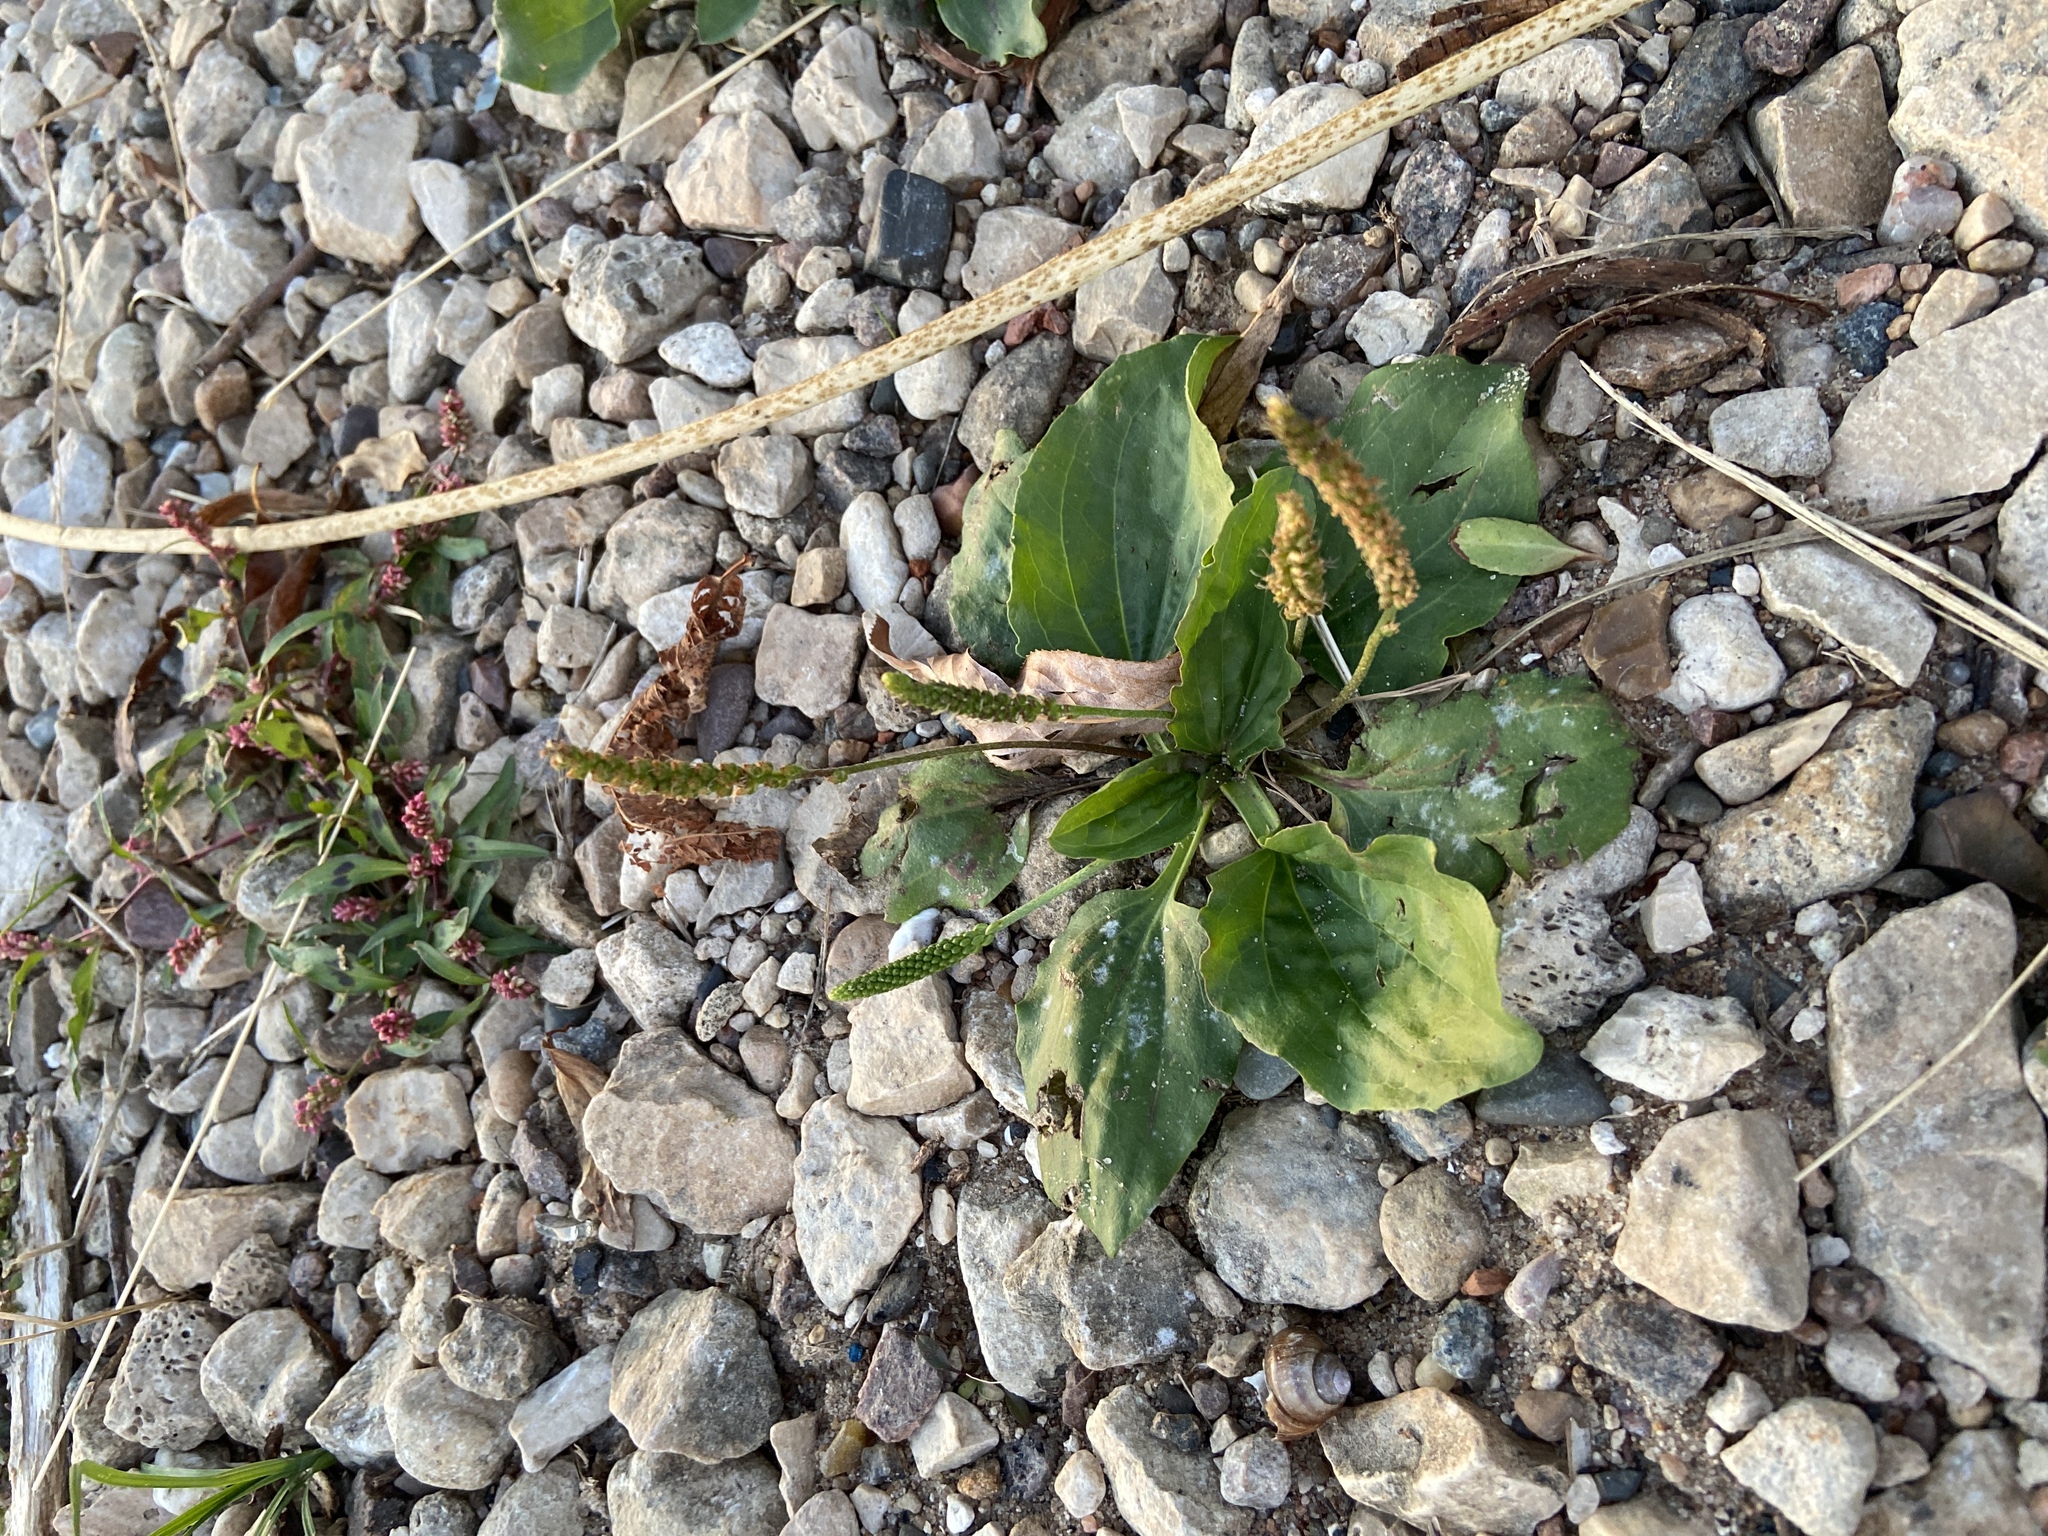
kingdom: Plantae
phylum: Tracheophyta
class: Magnoliopsida
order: Lamiales
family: Plantaginaceae
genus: Plantago
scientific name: Plantago major
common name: Common plantain
